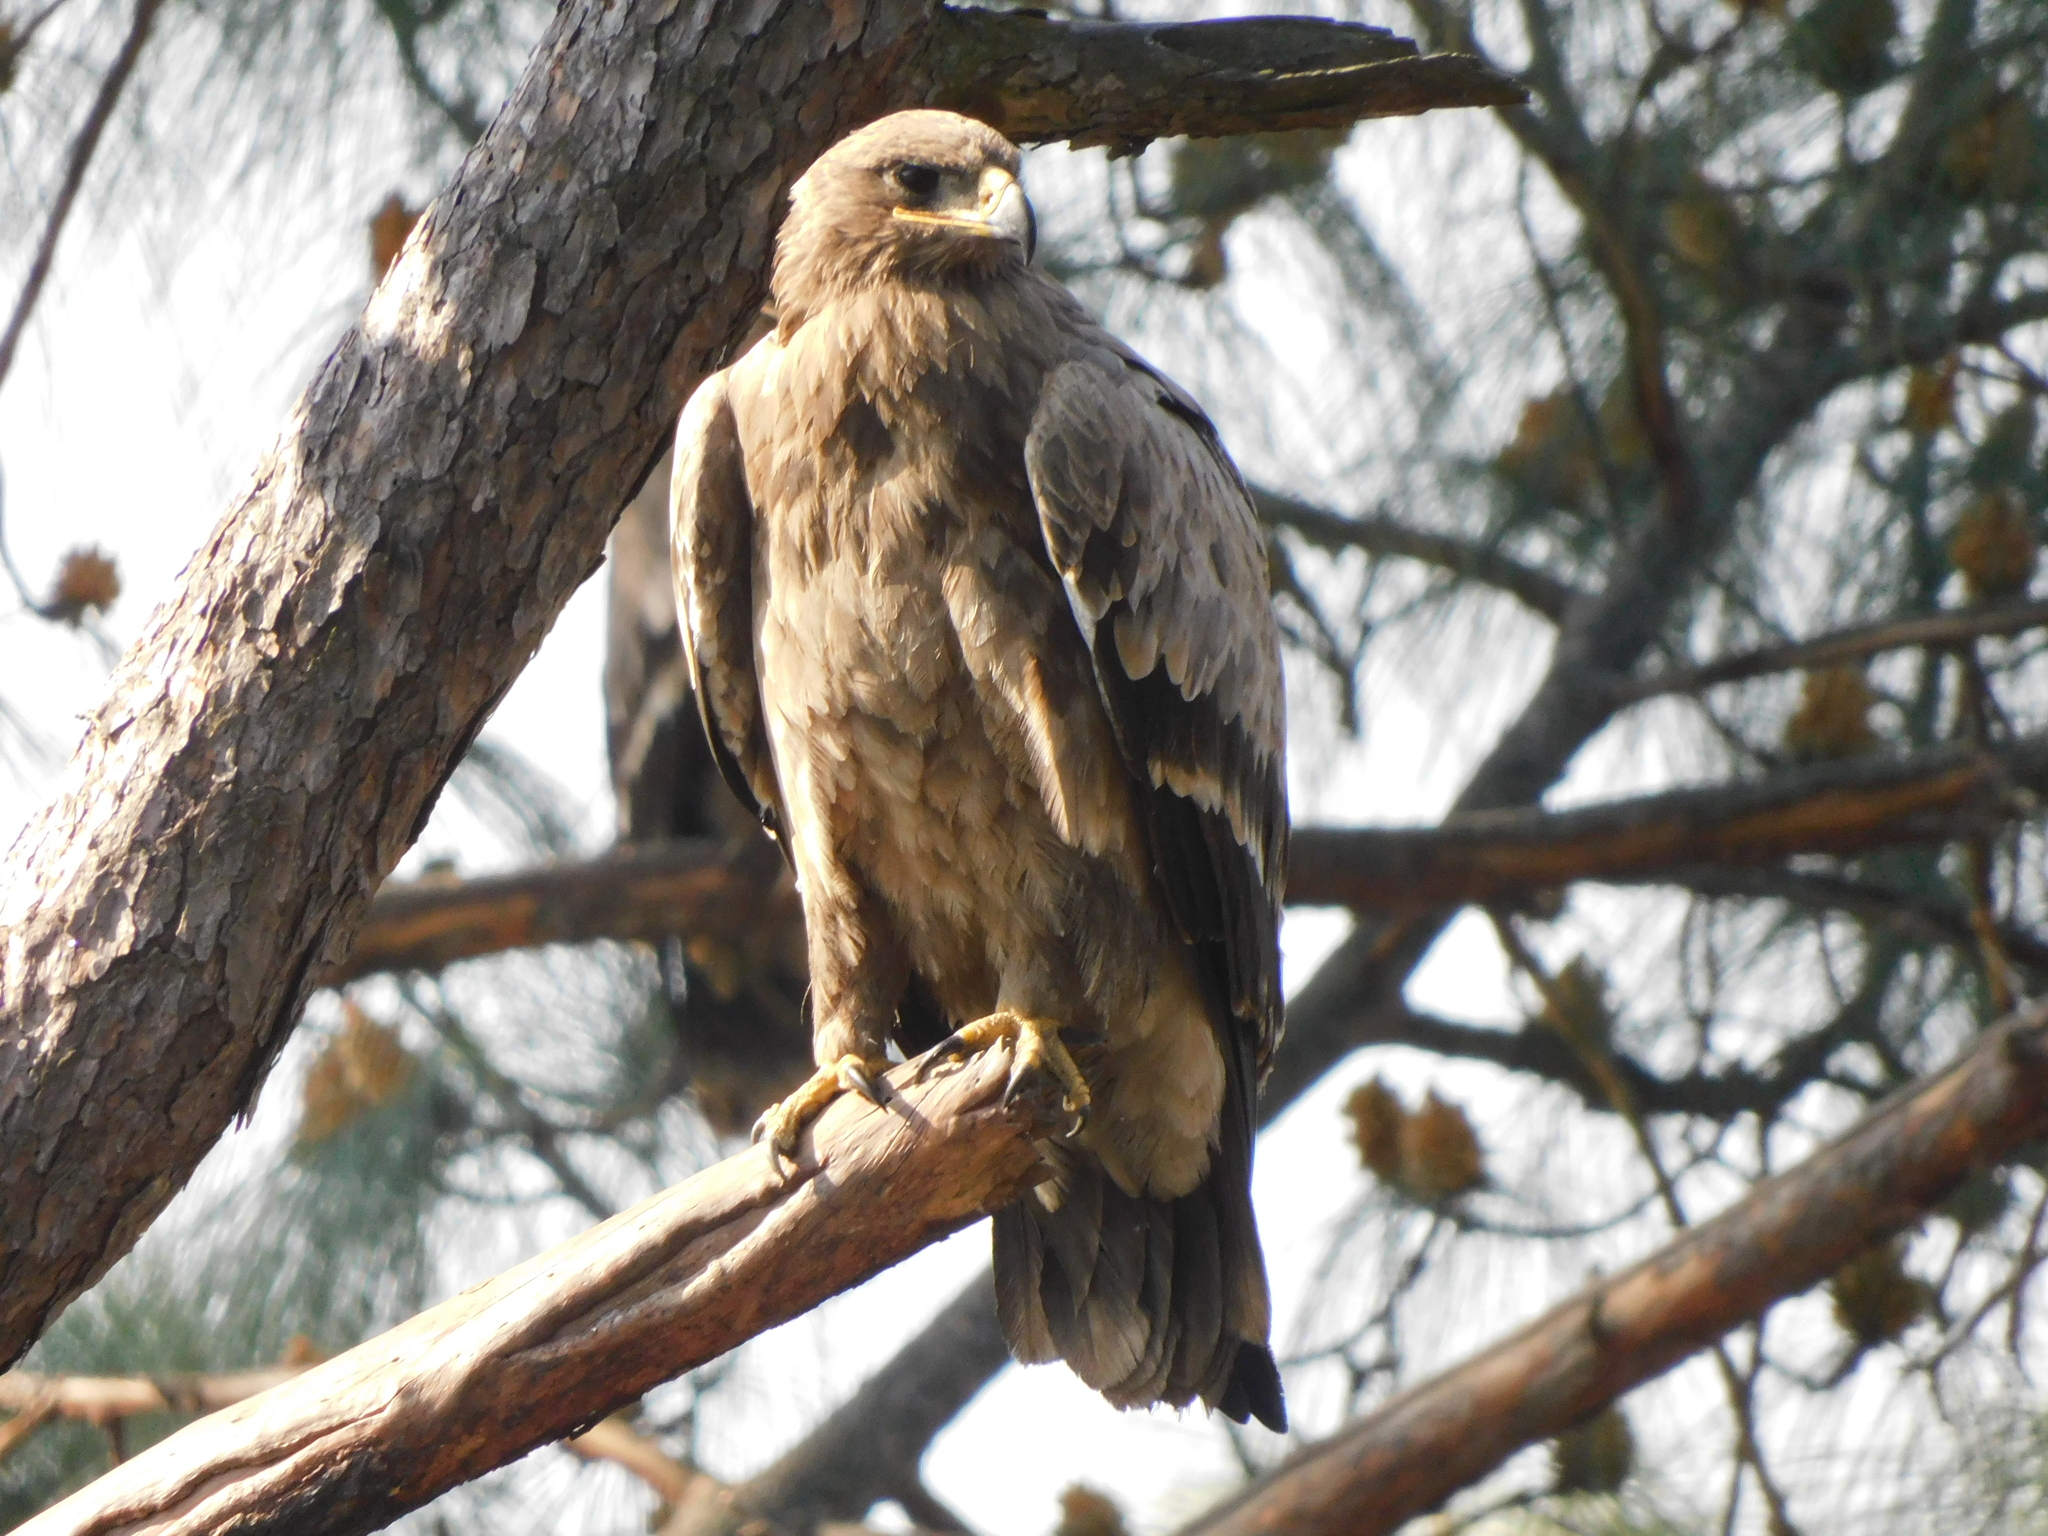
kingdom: Animalia
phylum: Chordata
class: Aves
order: Accipitriformes
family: Accipitridae
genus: Aquila
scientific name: Aquila nipalensis
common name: Steppe eagle
